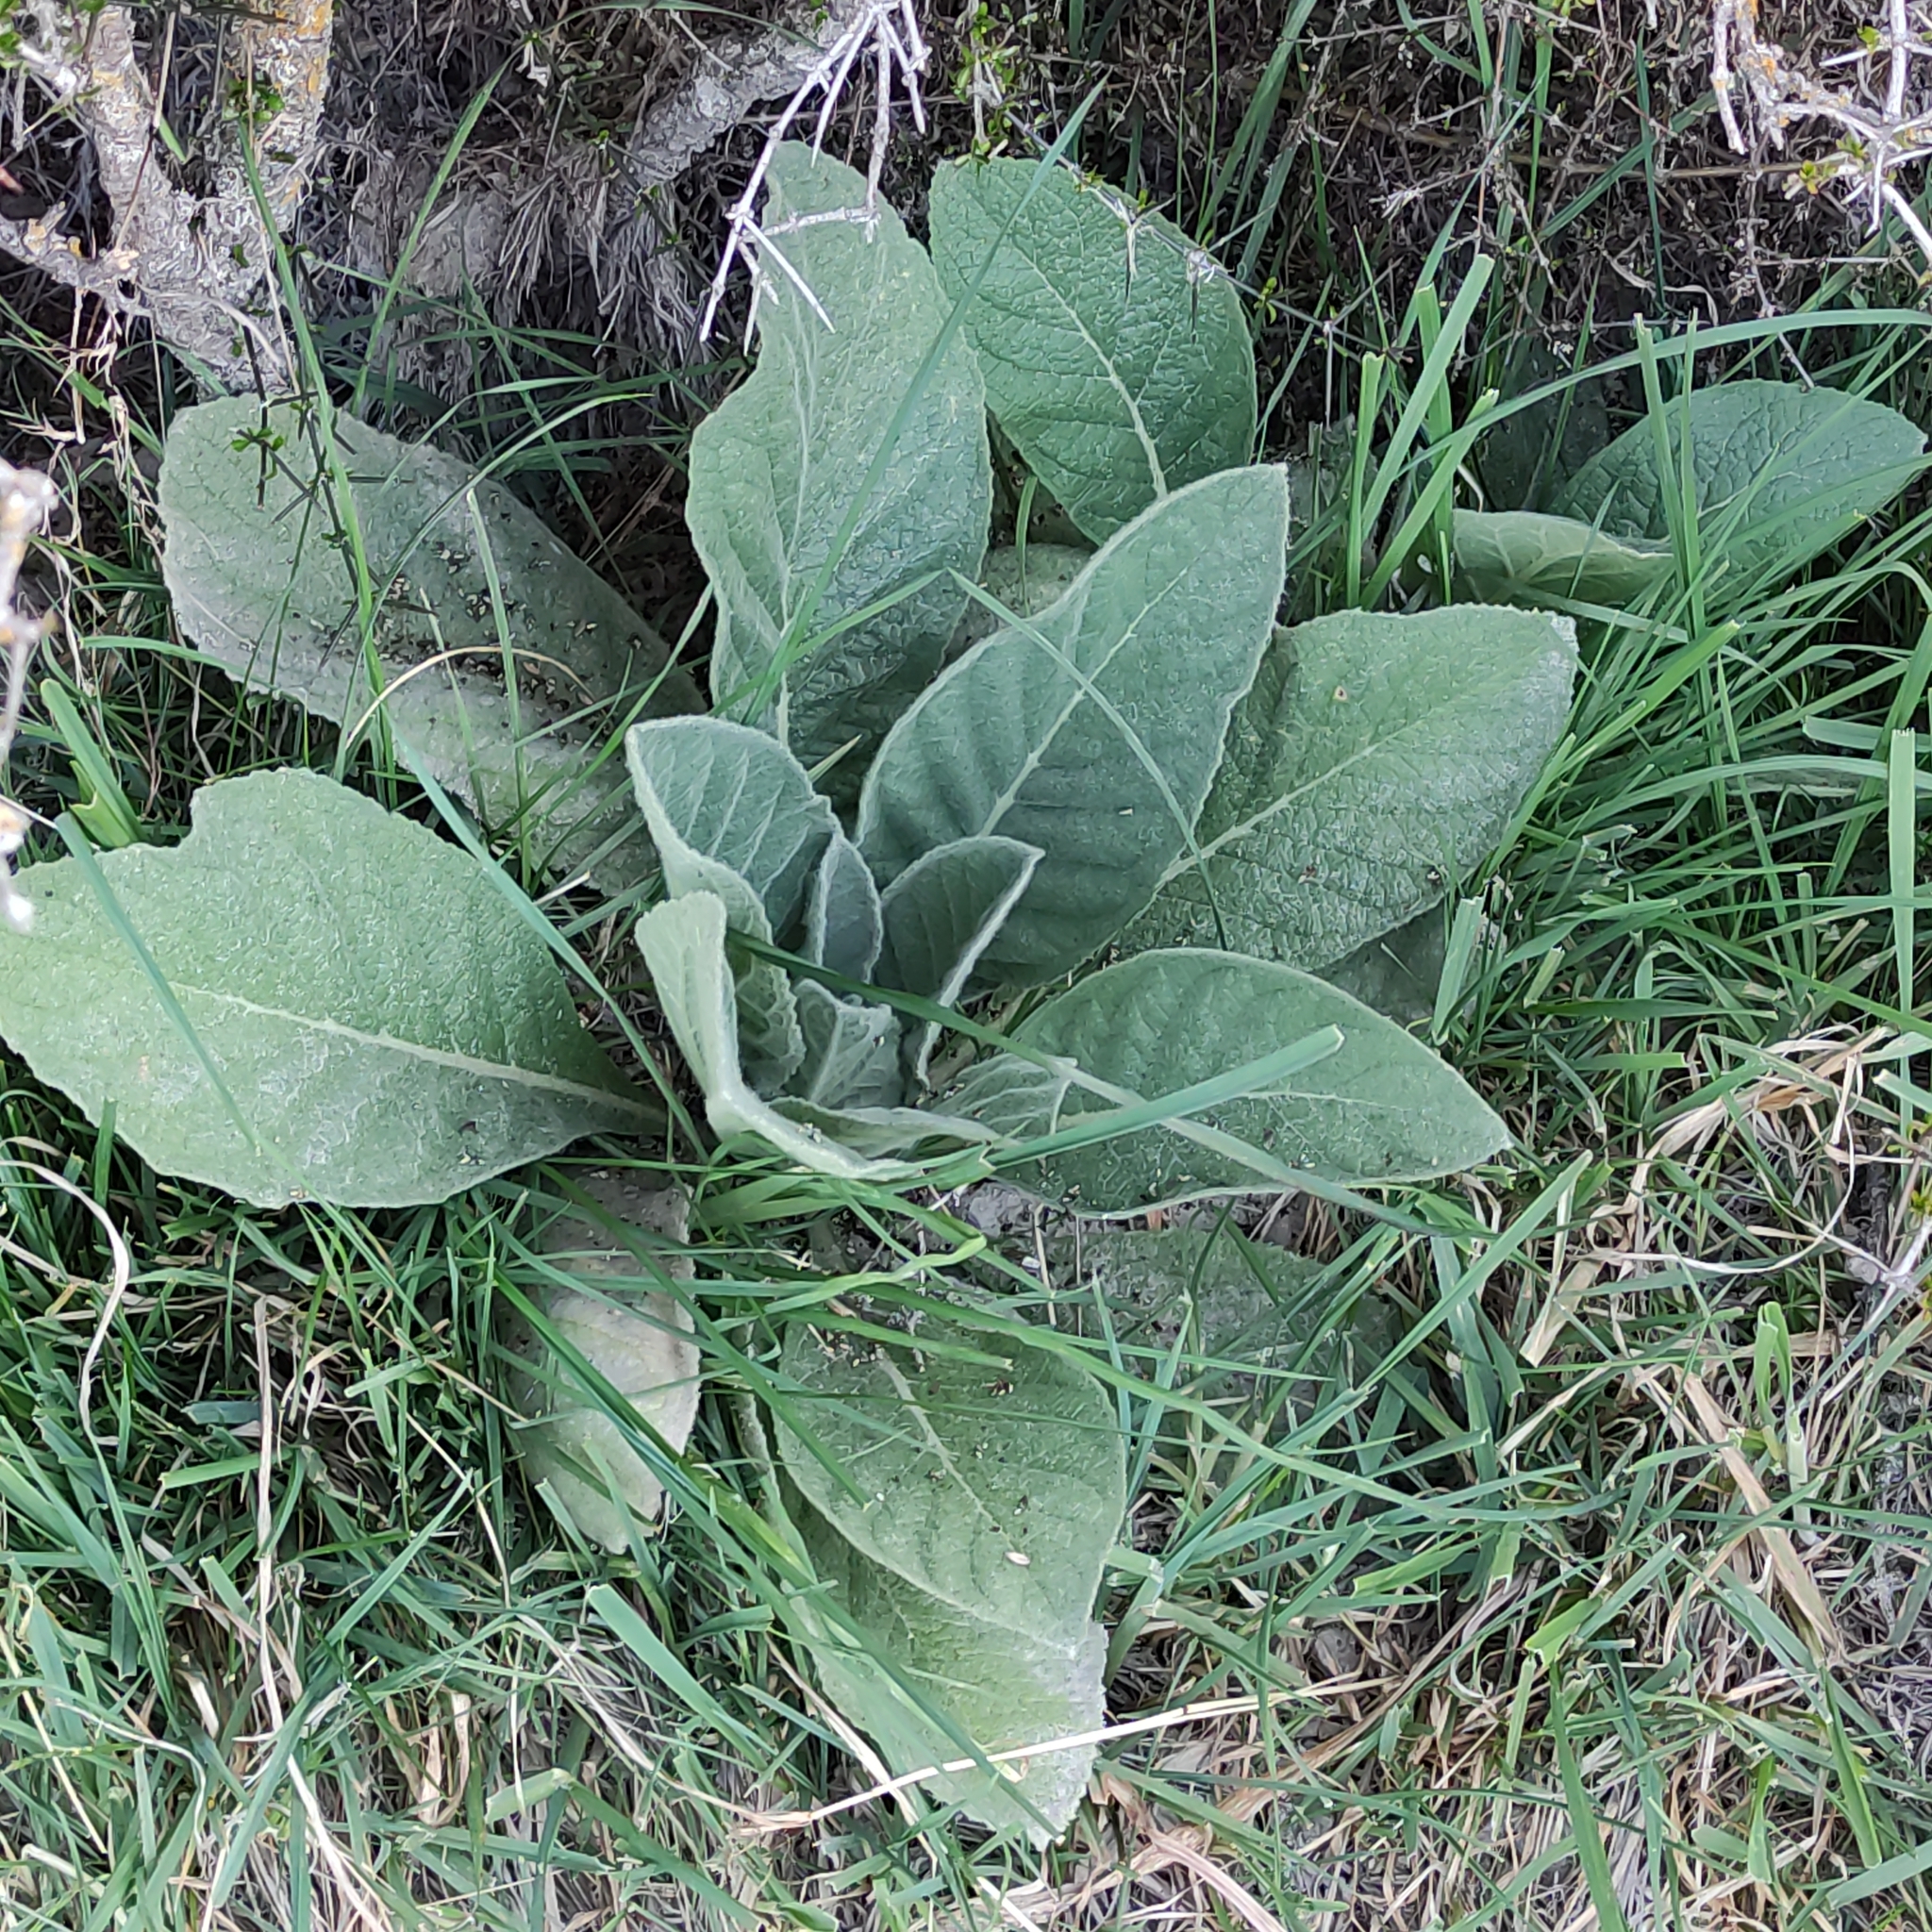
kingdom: Plantae
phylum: Tracheophyta
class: Magnoliopsida
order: Lamiales
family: Scrophulariaceae
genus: Verbascum
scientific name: Verbascum thapsus
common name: Common mullein
